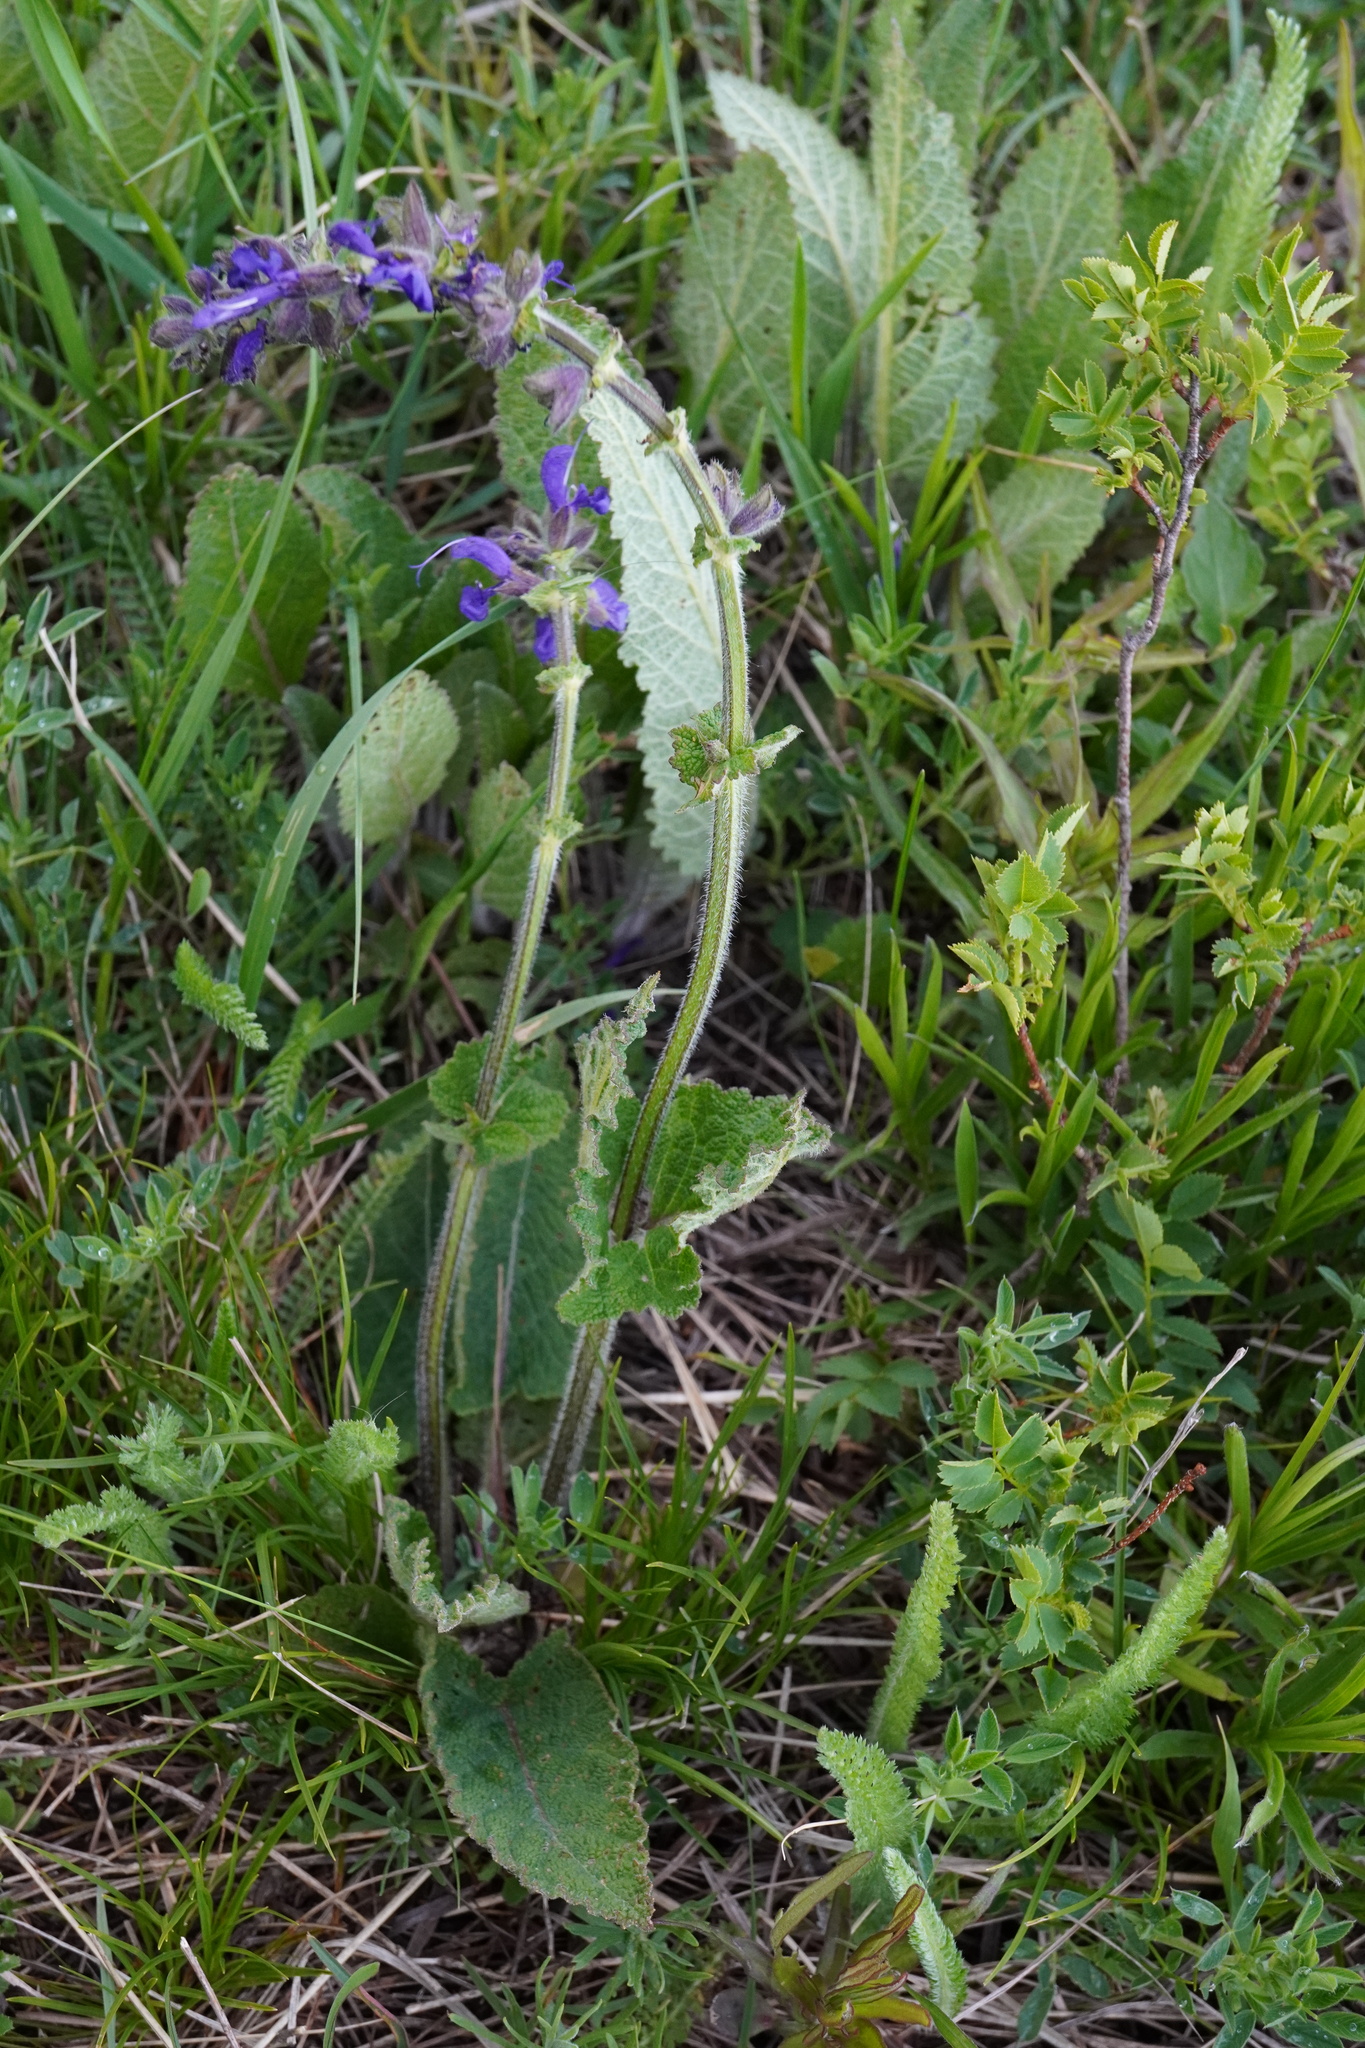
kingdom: Plantae
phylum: Tracheophyta
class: Magnoliopsida
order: Lamiales
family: Lamiaceae
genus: Salvia
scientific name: Salvia pratensis
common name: Meadow sage
